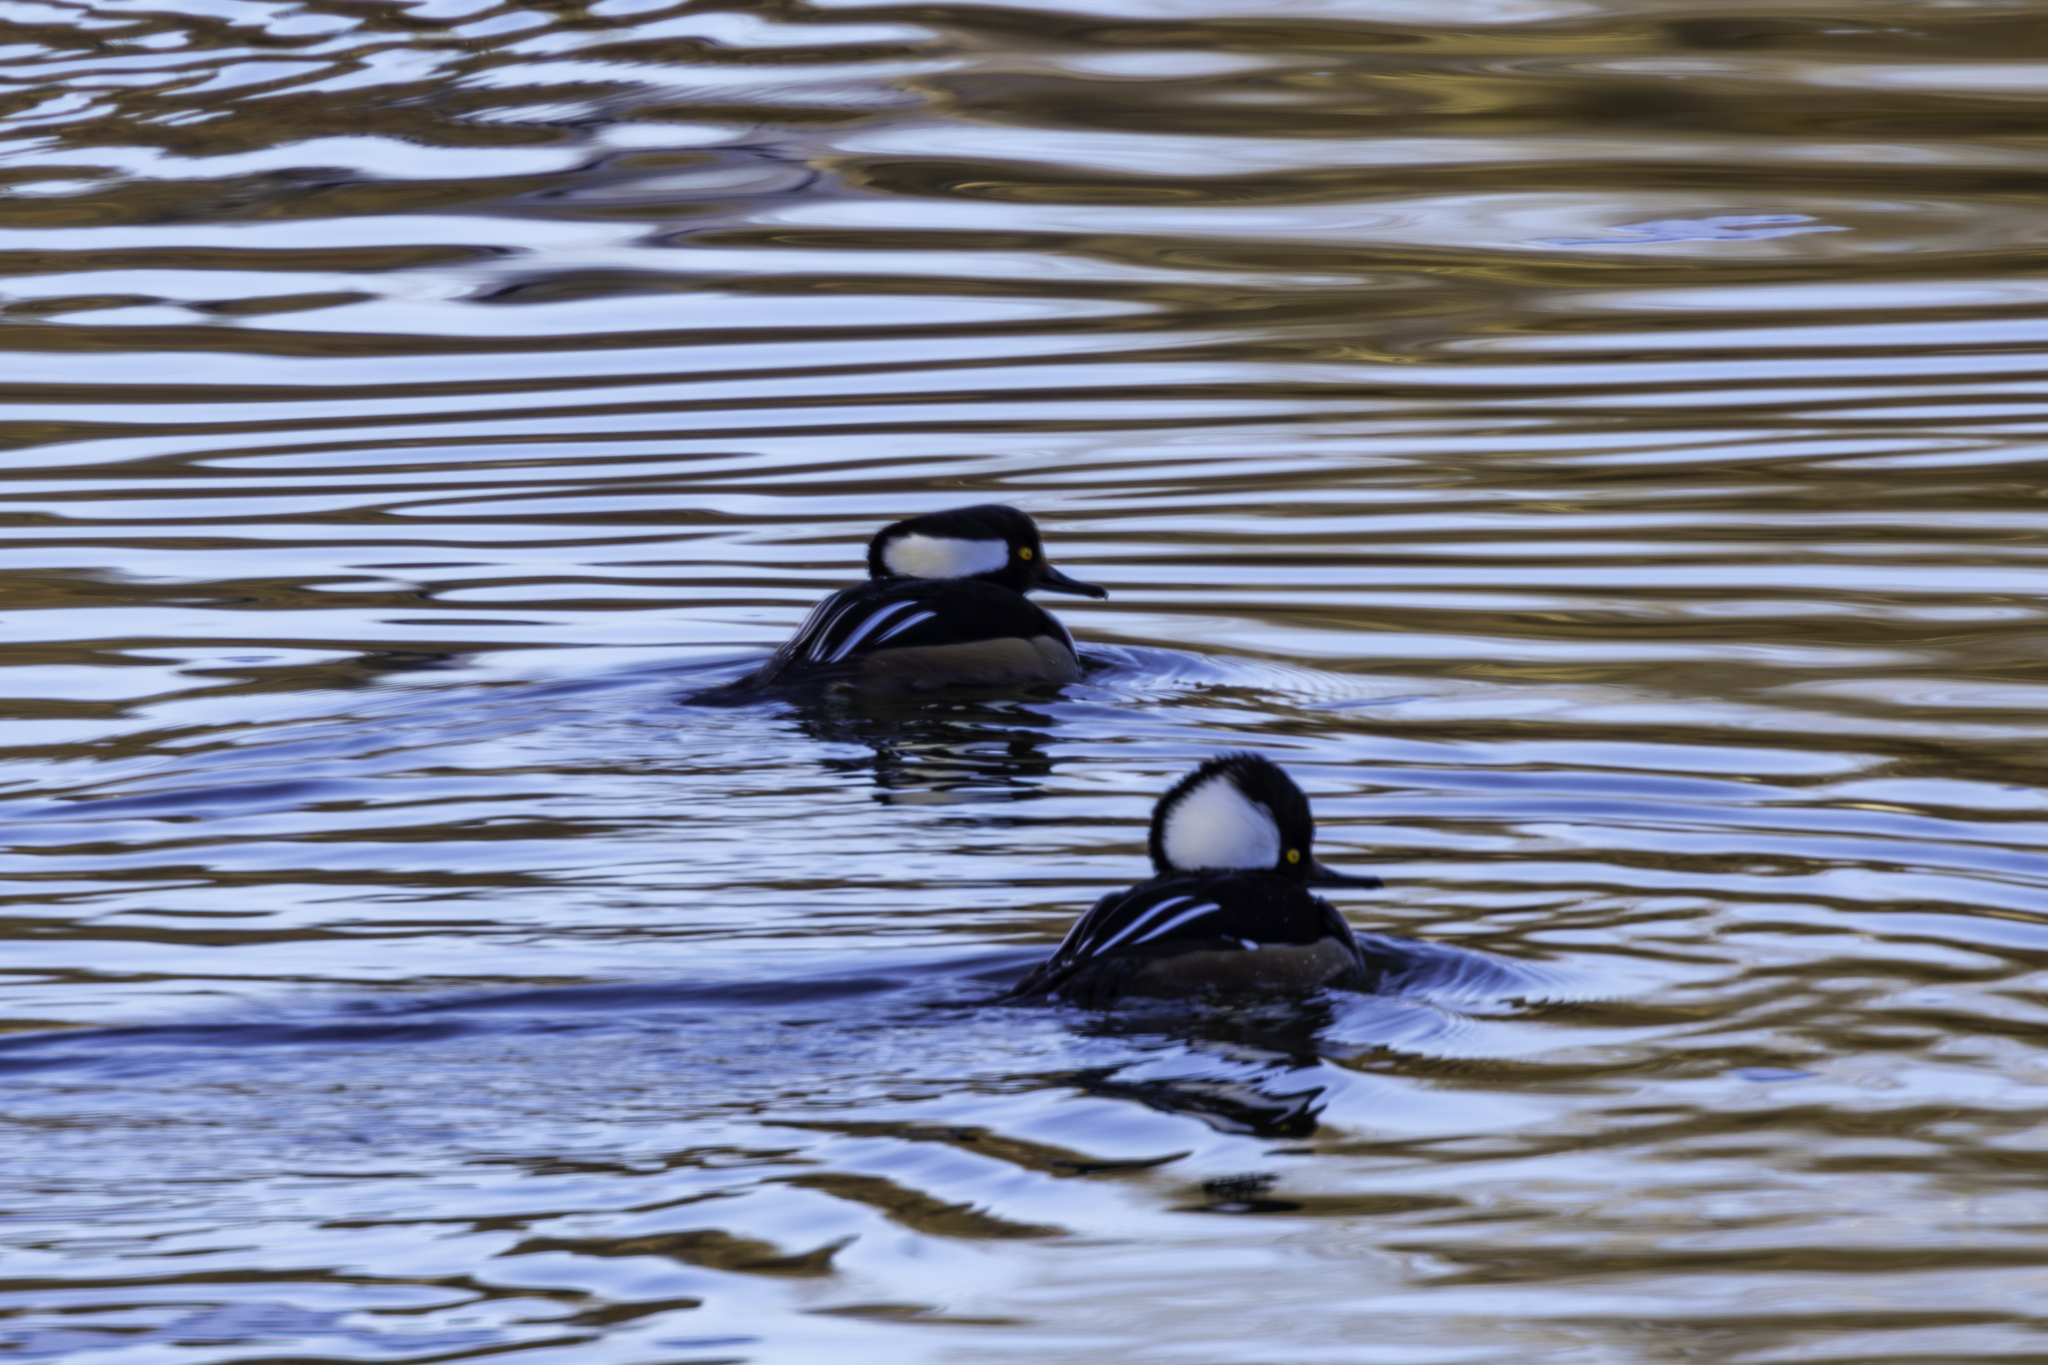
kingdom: Animalia
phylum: Chordata
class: Aves
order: Anseriformes
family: Anatidae
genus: Lophodytes
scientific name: Lophodytes cucullatus
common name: Hooded merganser
